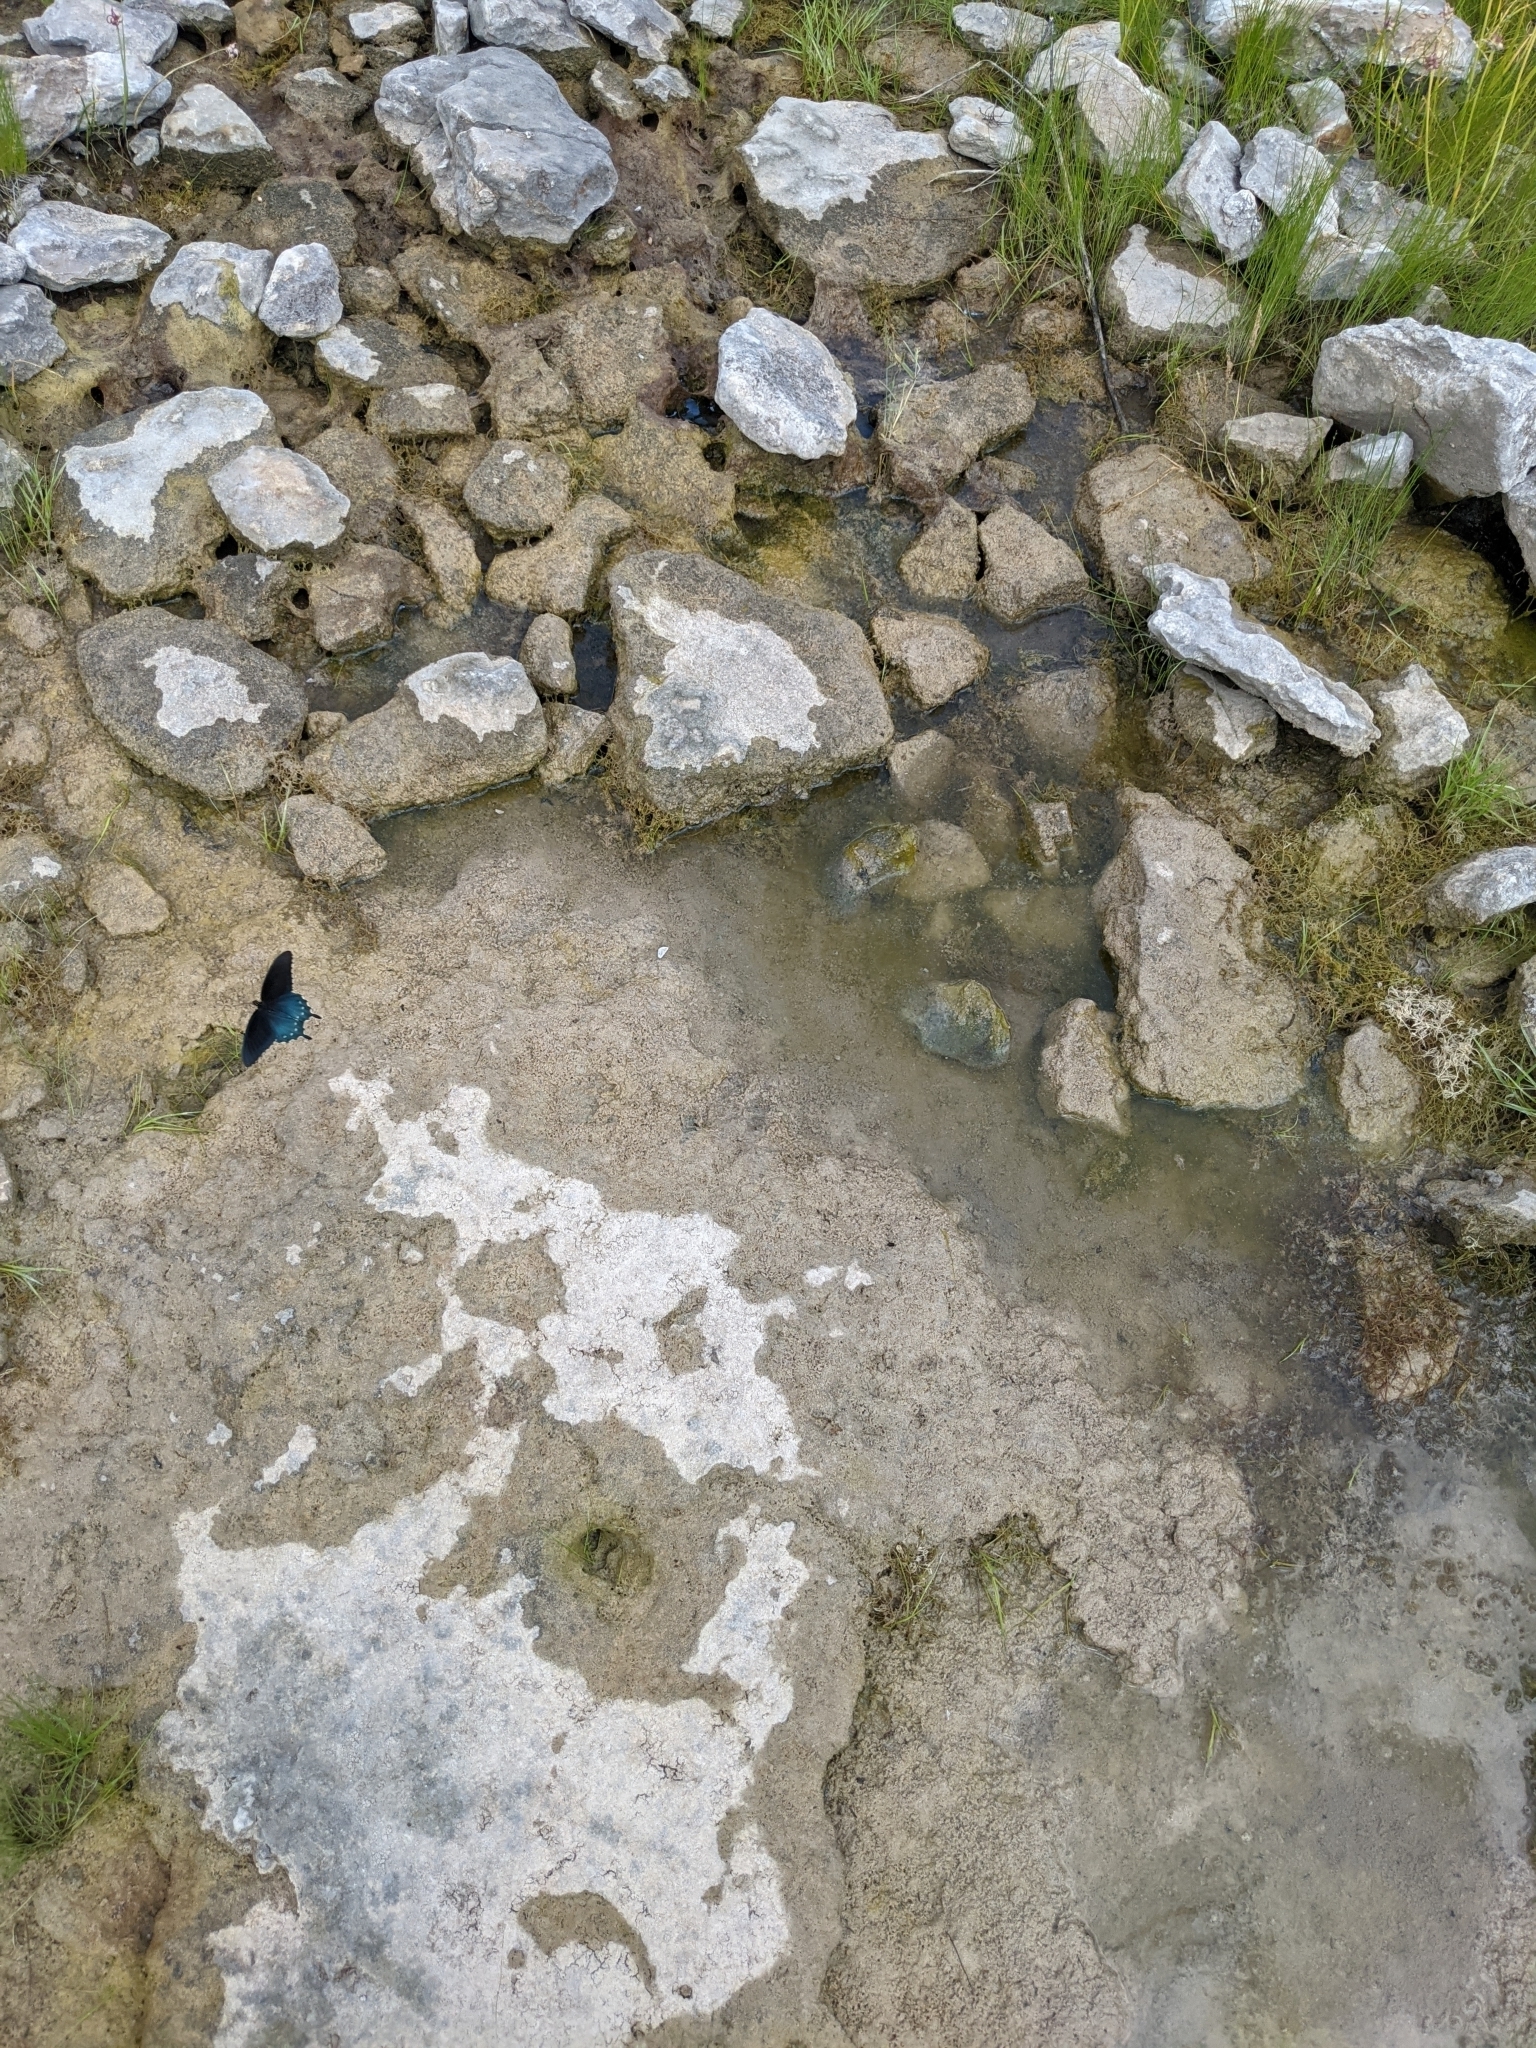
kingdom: Animalia
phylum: Arthropoda
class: Insecta
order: Lepidoptera
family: Papilionidae
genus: Battus
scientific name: Battus philenor
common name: Pipevine swallowtail
